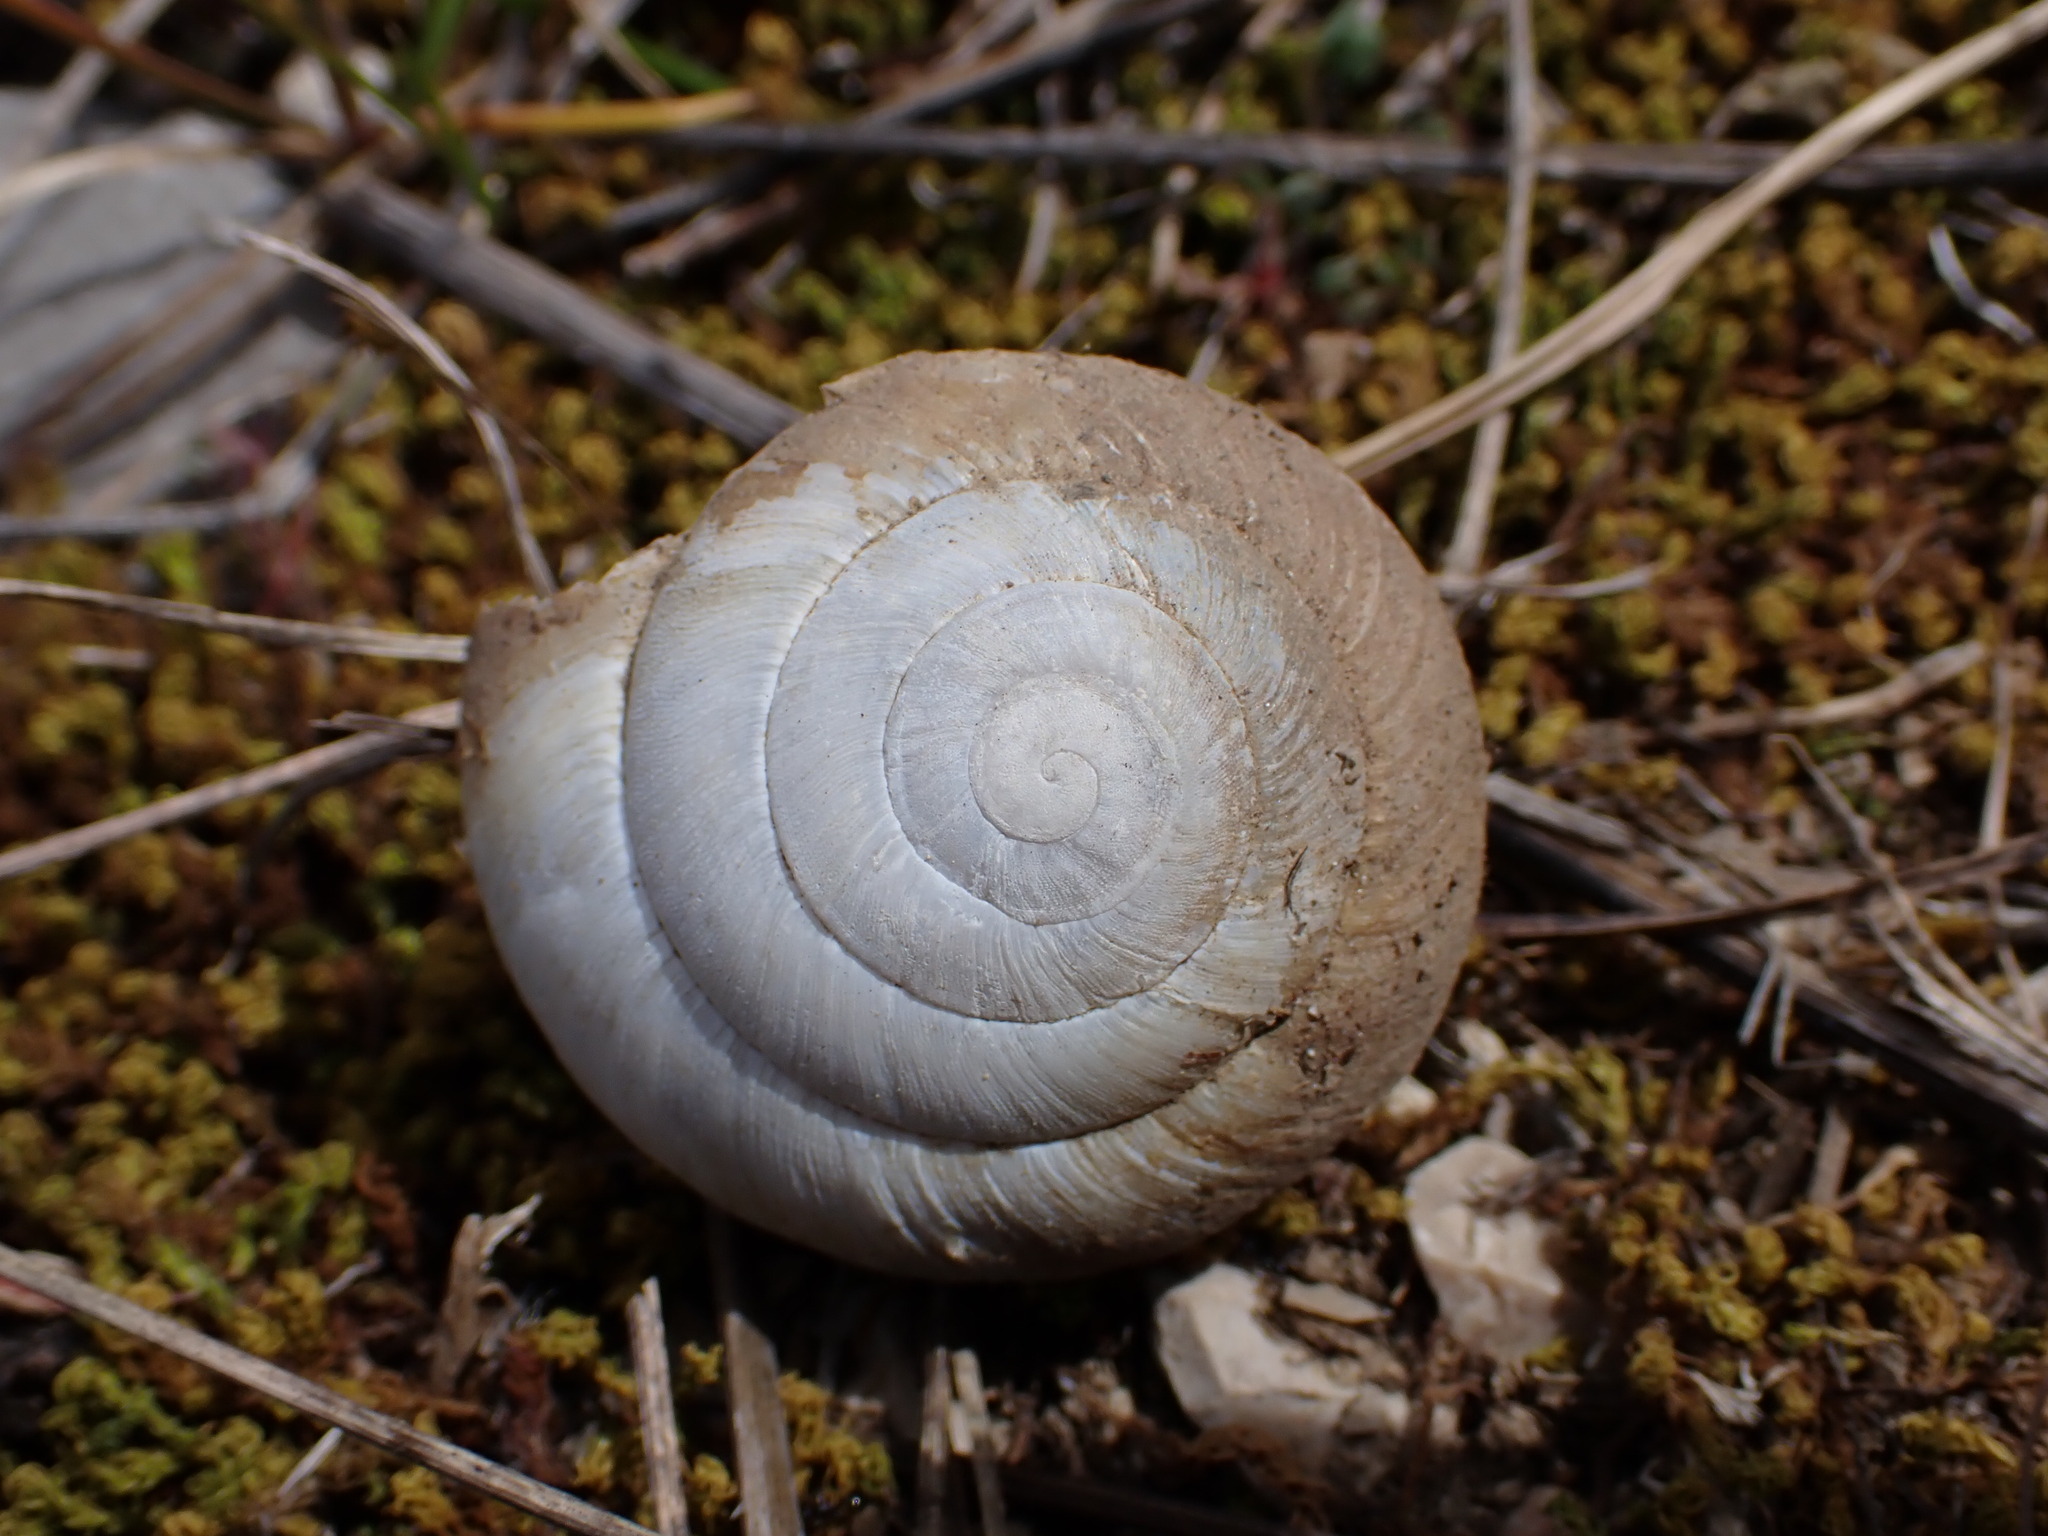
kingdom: Animalia
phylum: Mollusca
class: Gastropoda
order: Stylommatophora
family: Zonitidae
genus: Zonites
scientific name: Zonites algirus
